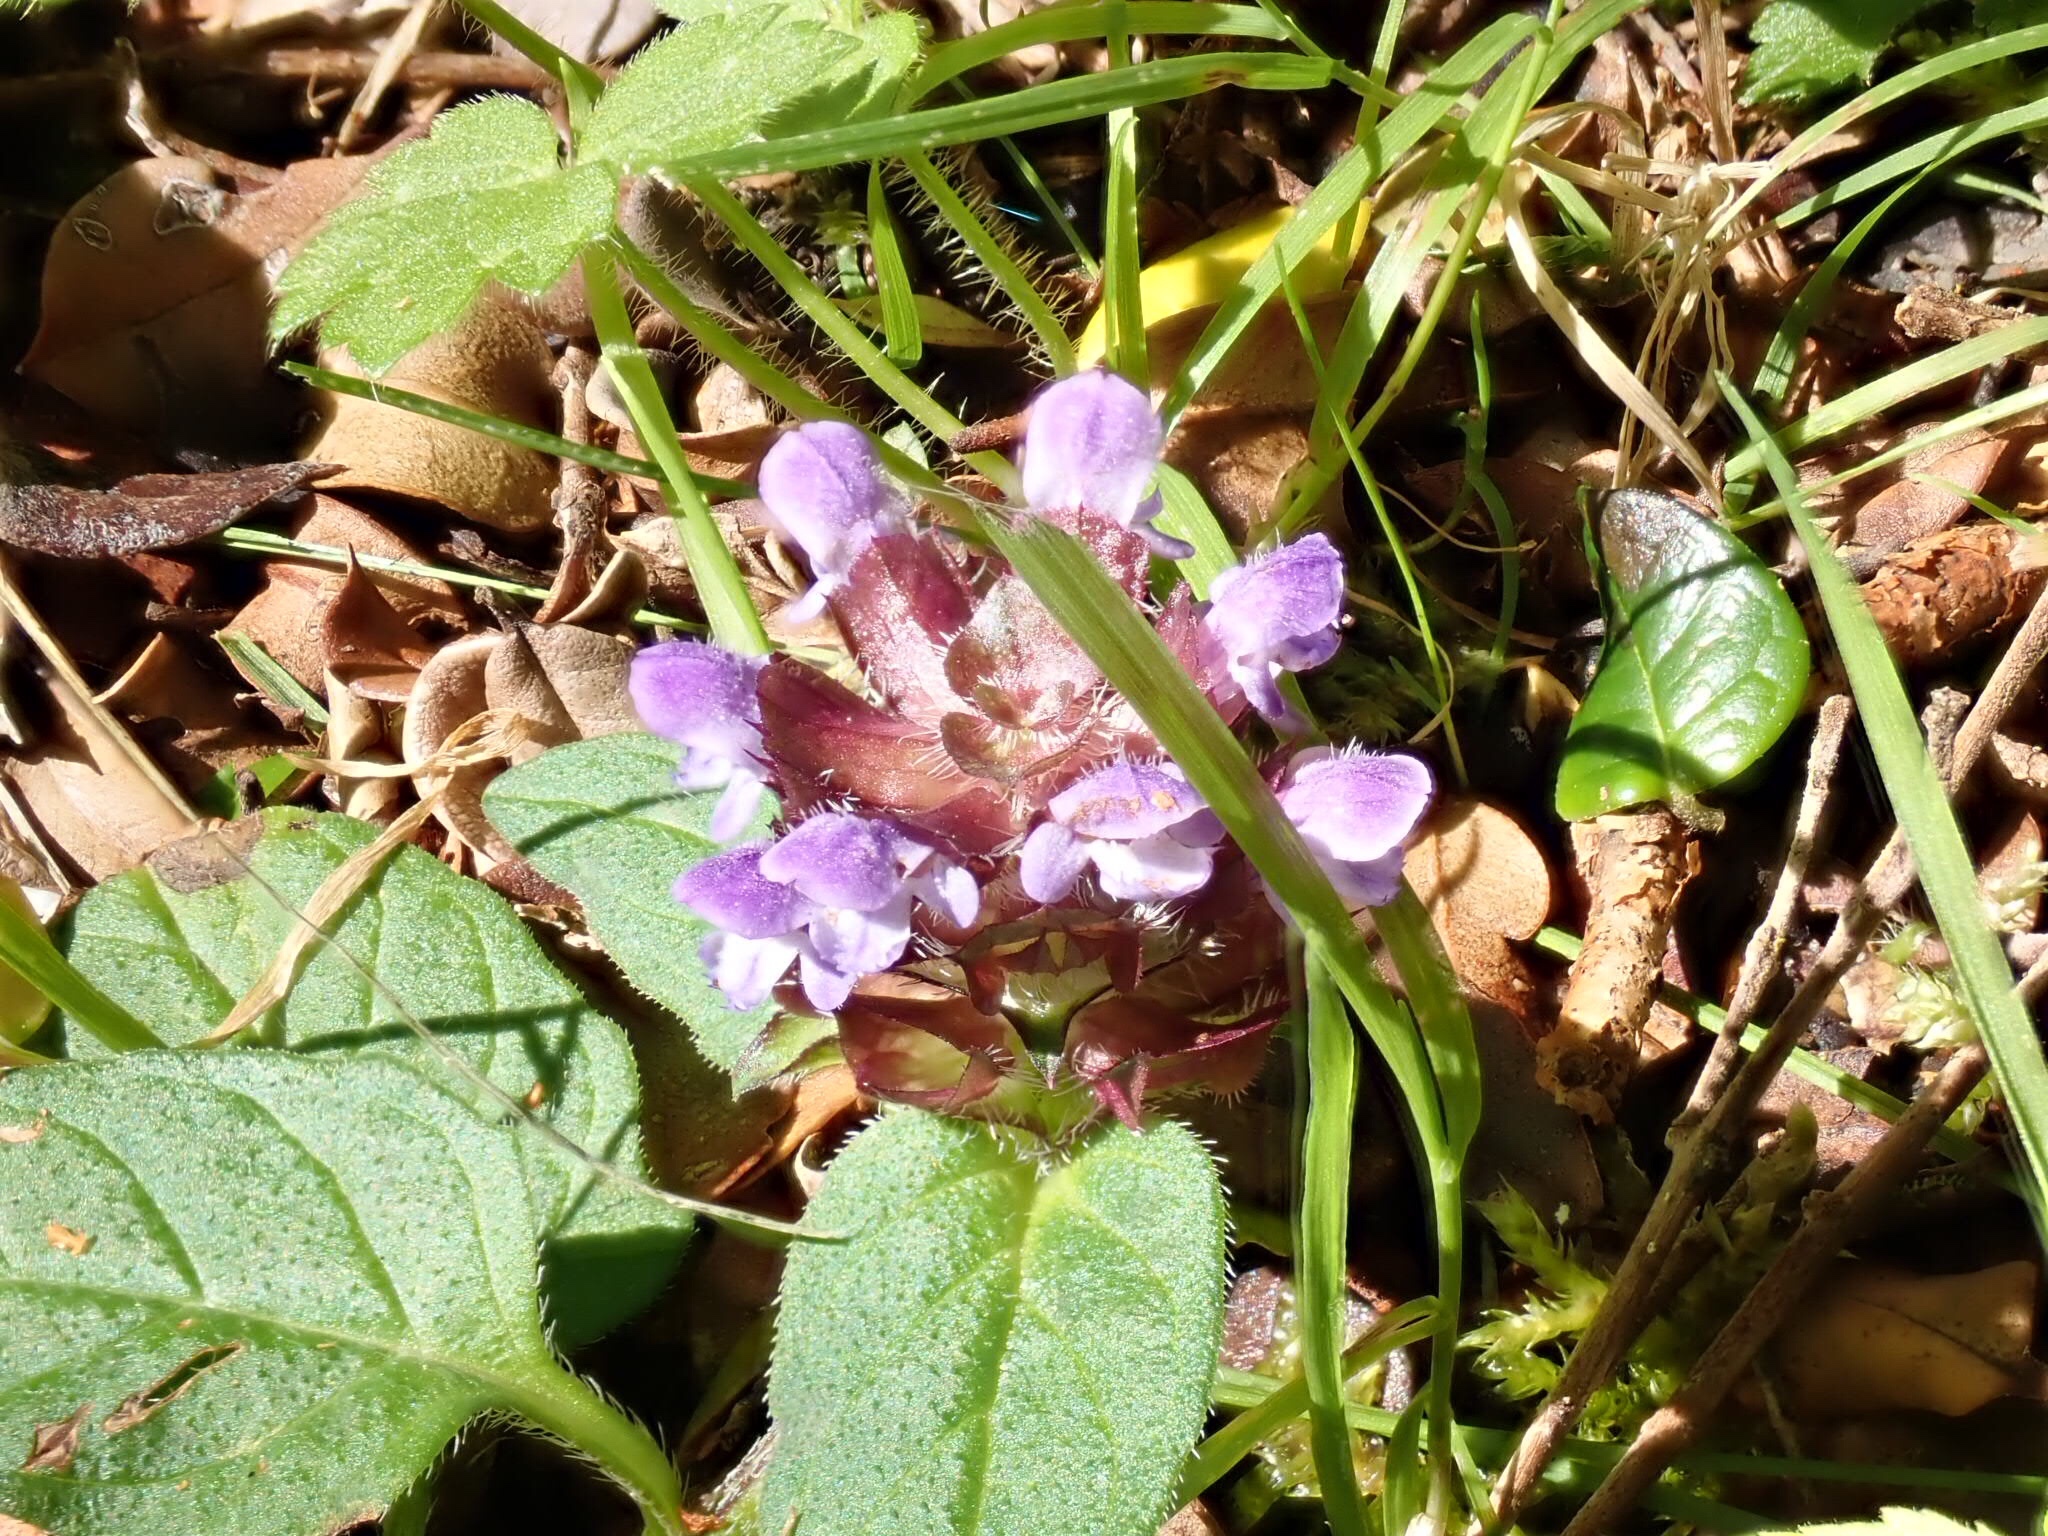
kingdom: Plantae
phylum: Tracheophyta
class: Magnoliopsida
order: Lamiales
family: Lamiaceae
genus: Prunella
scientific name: Prunella vulgaris
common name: Heal-all
